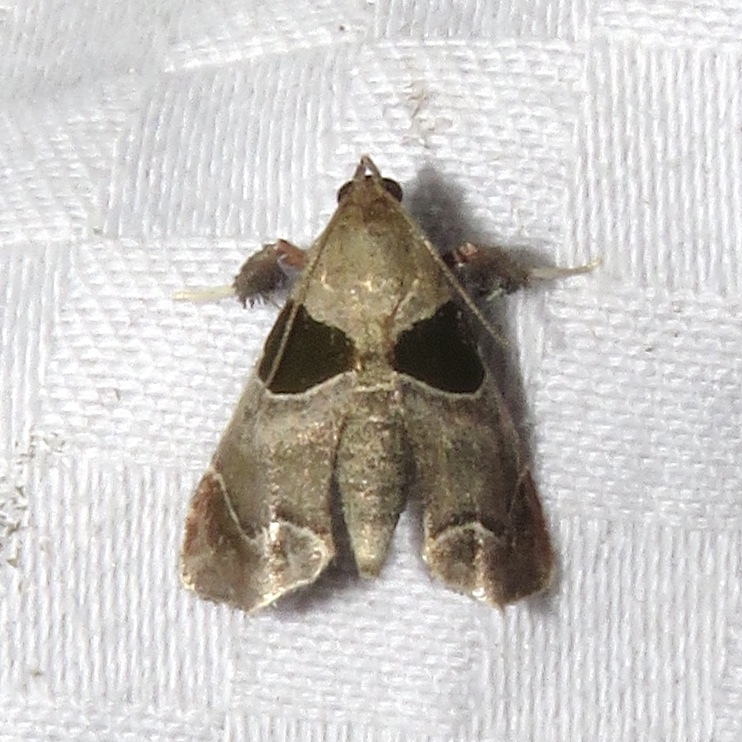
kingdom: Animalia
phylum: Arthropoda
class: Insecta
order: Lepidoptera
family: Pyralidae
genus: Tosale
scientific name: Tosale oviplagalis
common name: Dimorphic tosale moth
